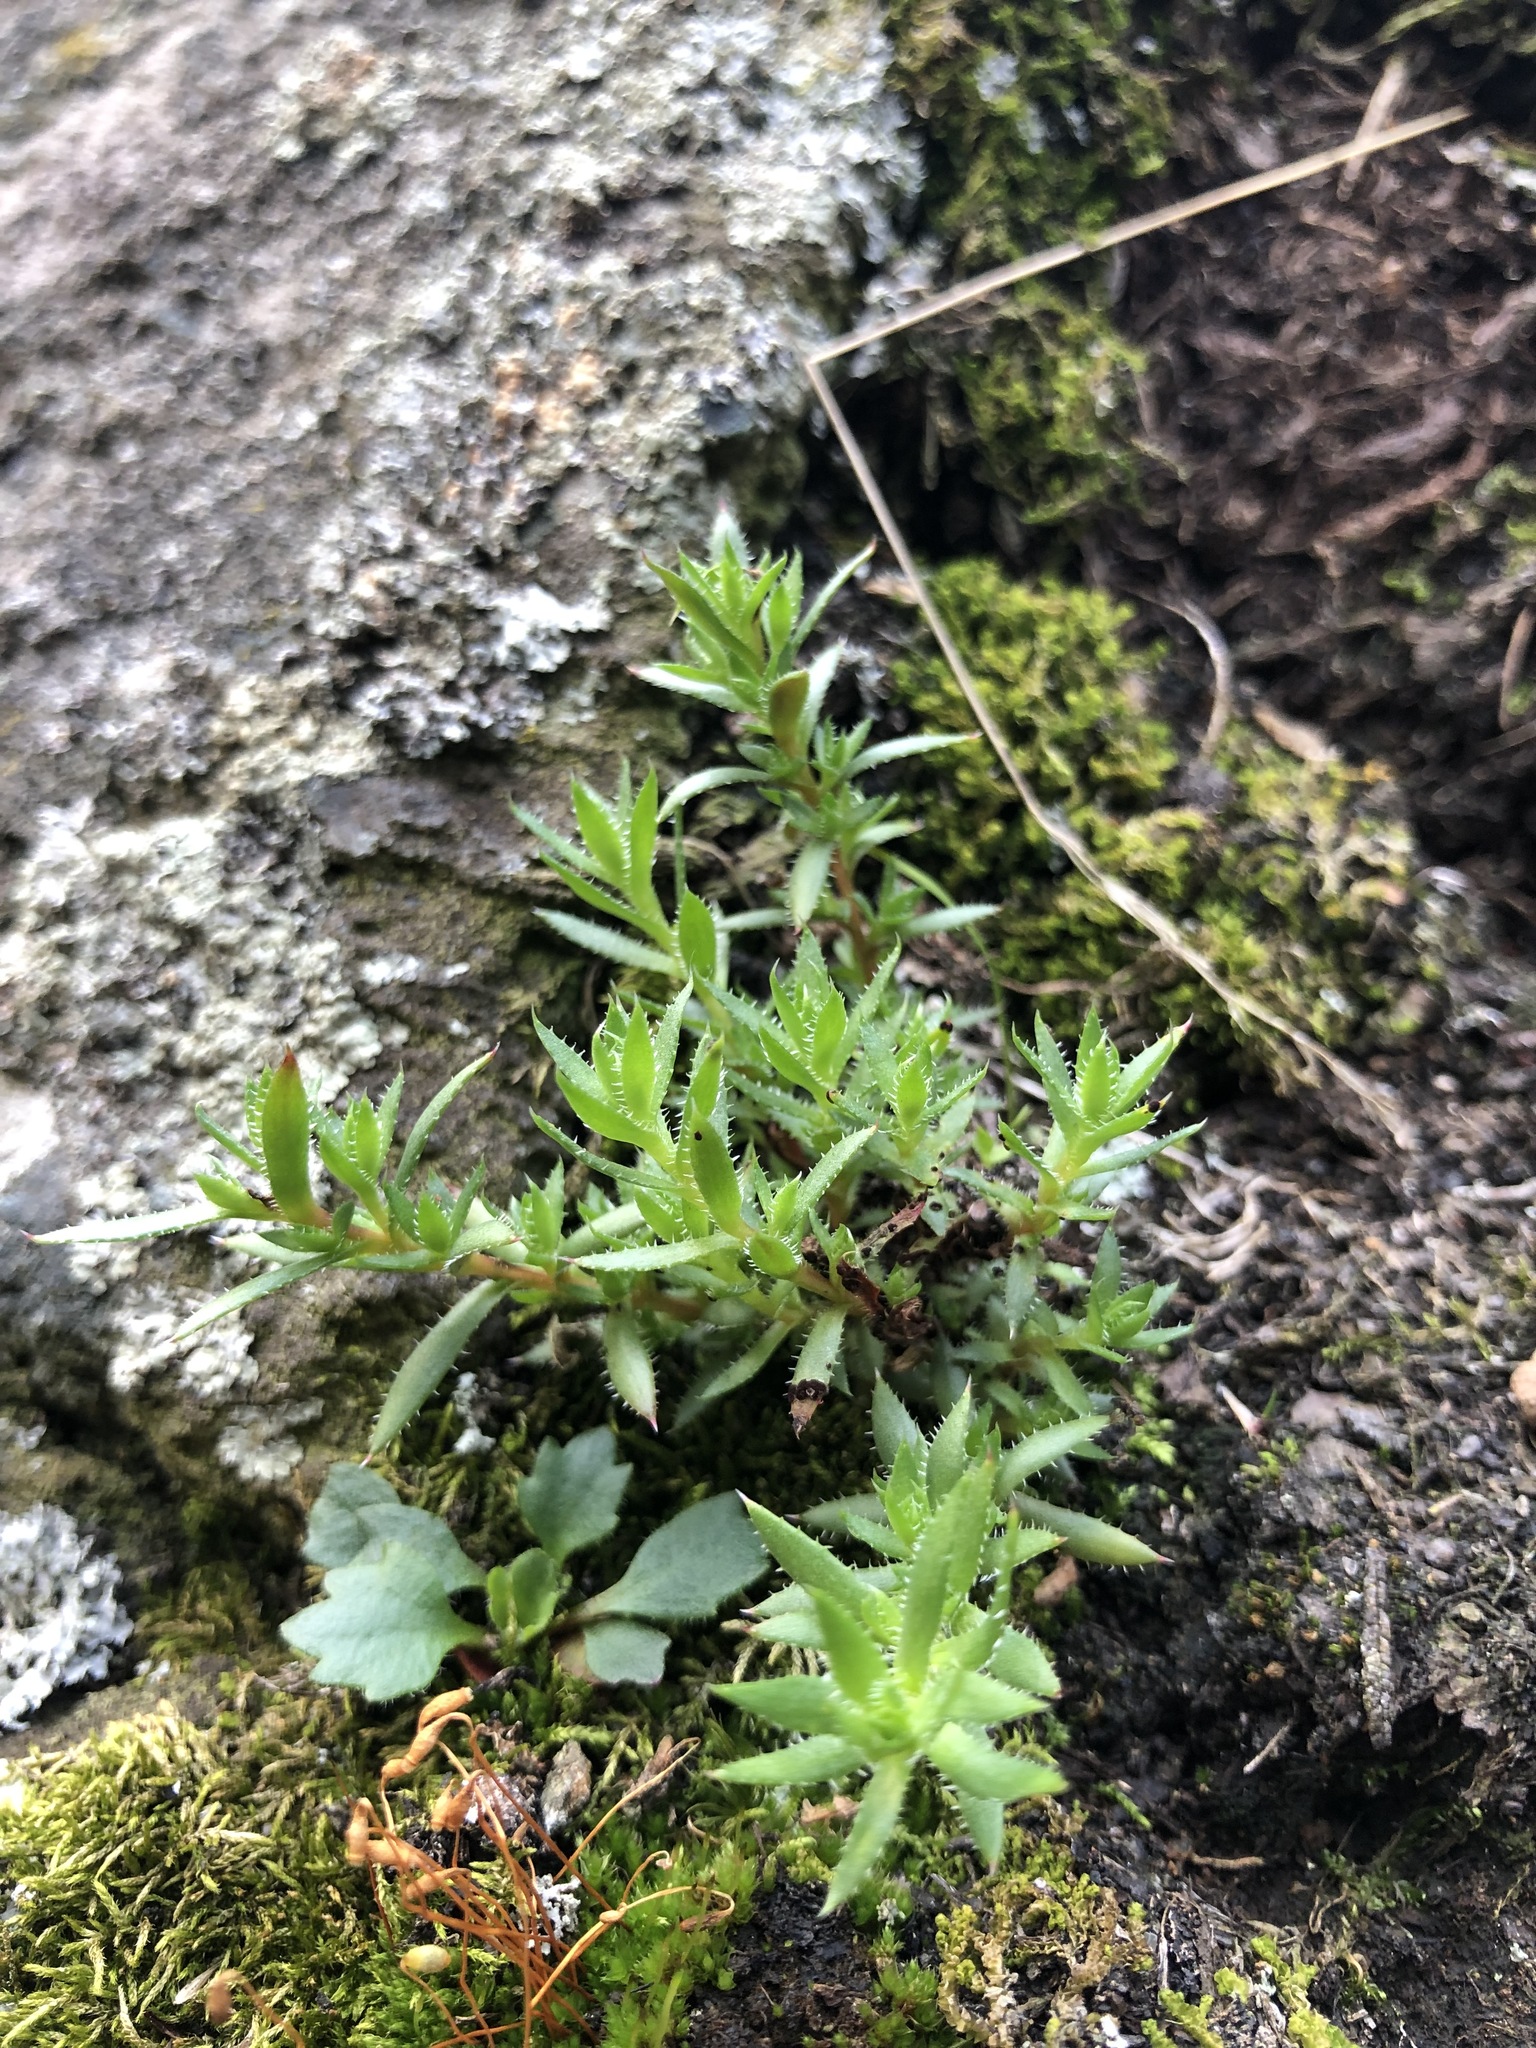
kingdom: Plantae
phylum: Tracheophyta
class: Magnoliopsida
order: Saxifragales
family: Saxifragaceae
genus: Saxifraga
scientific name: Saxifraga bronchialis
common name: Matted saxifrage
